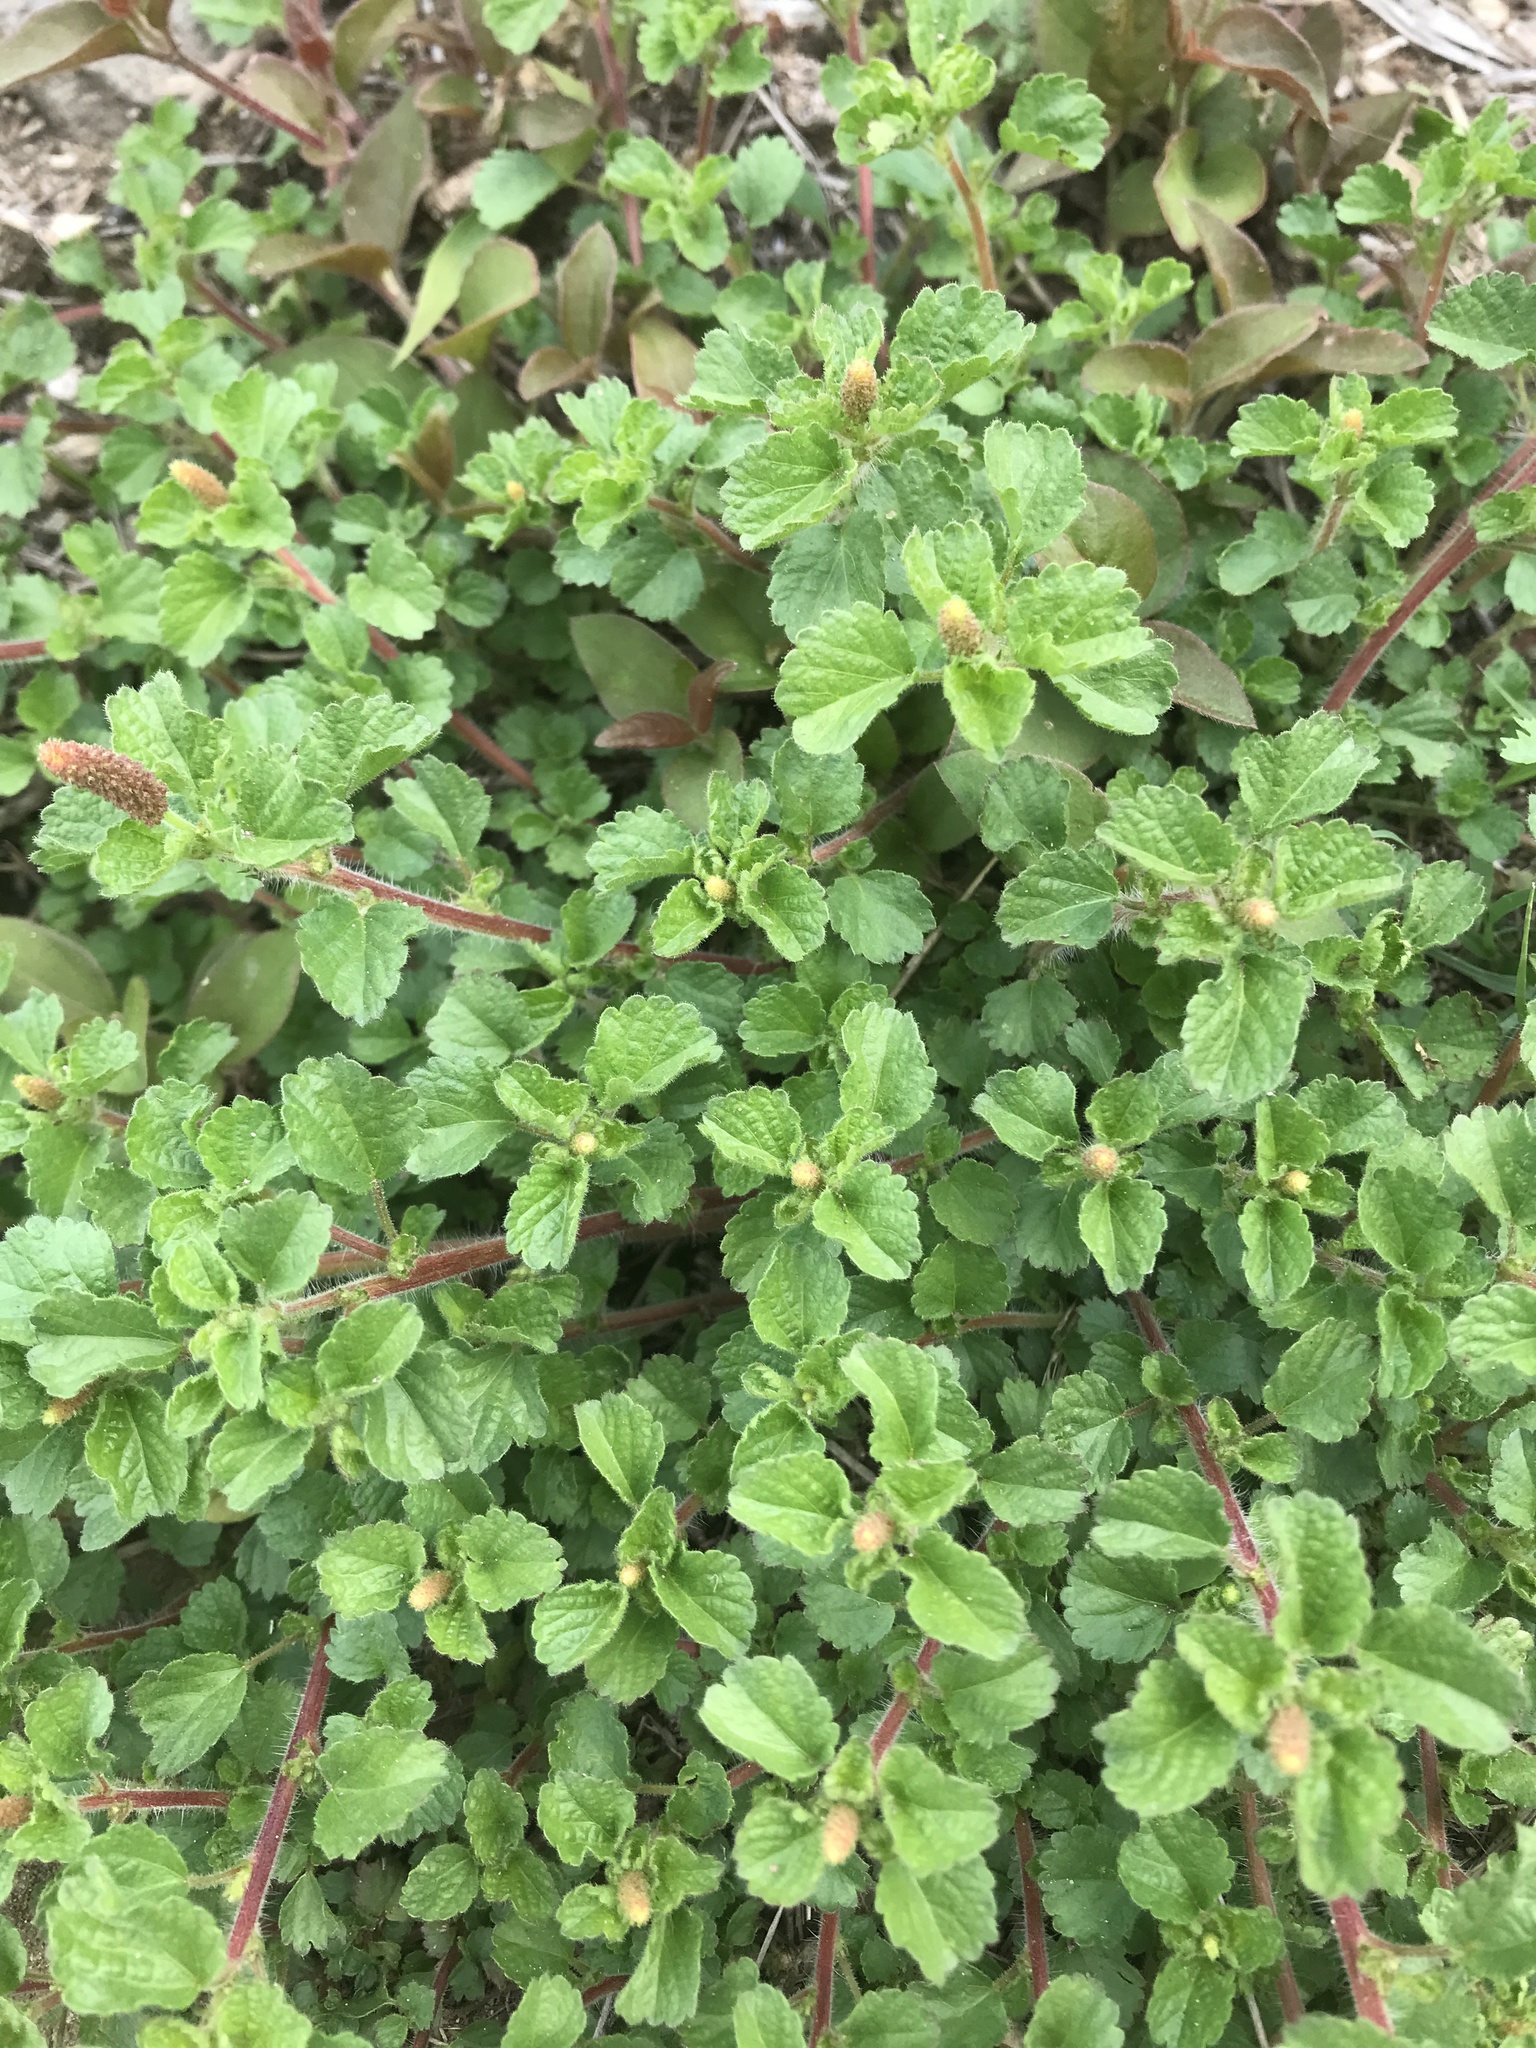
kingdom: Plantae
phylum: Tracheophyta
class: Magnoliopsida
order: Malpighiales
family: Euphorbiaceae
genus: Acalypha
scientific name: Acalypha monostachya
